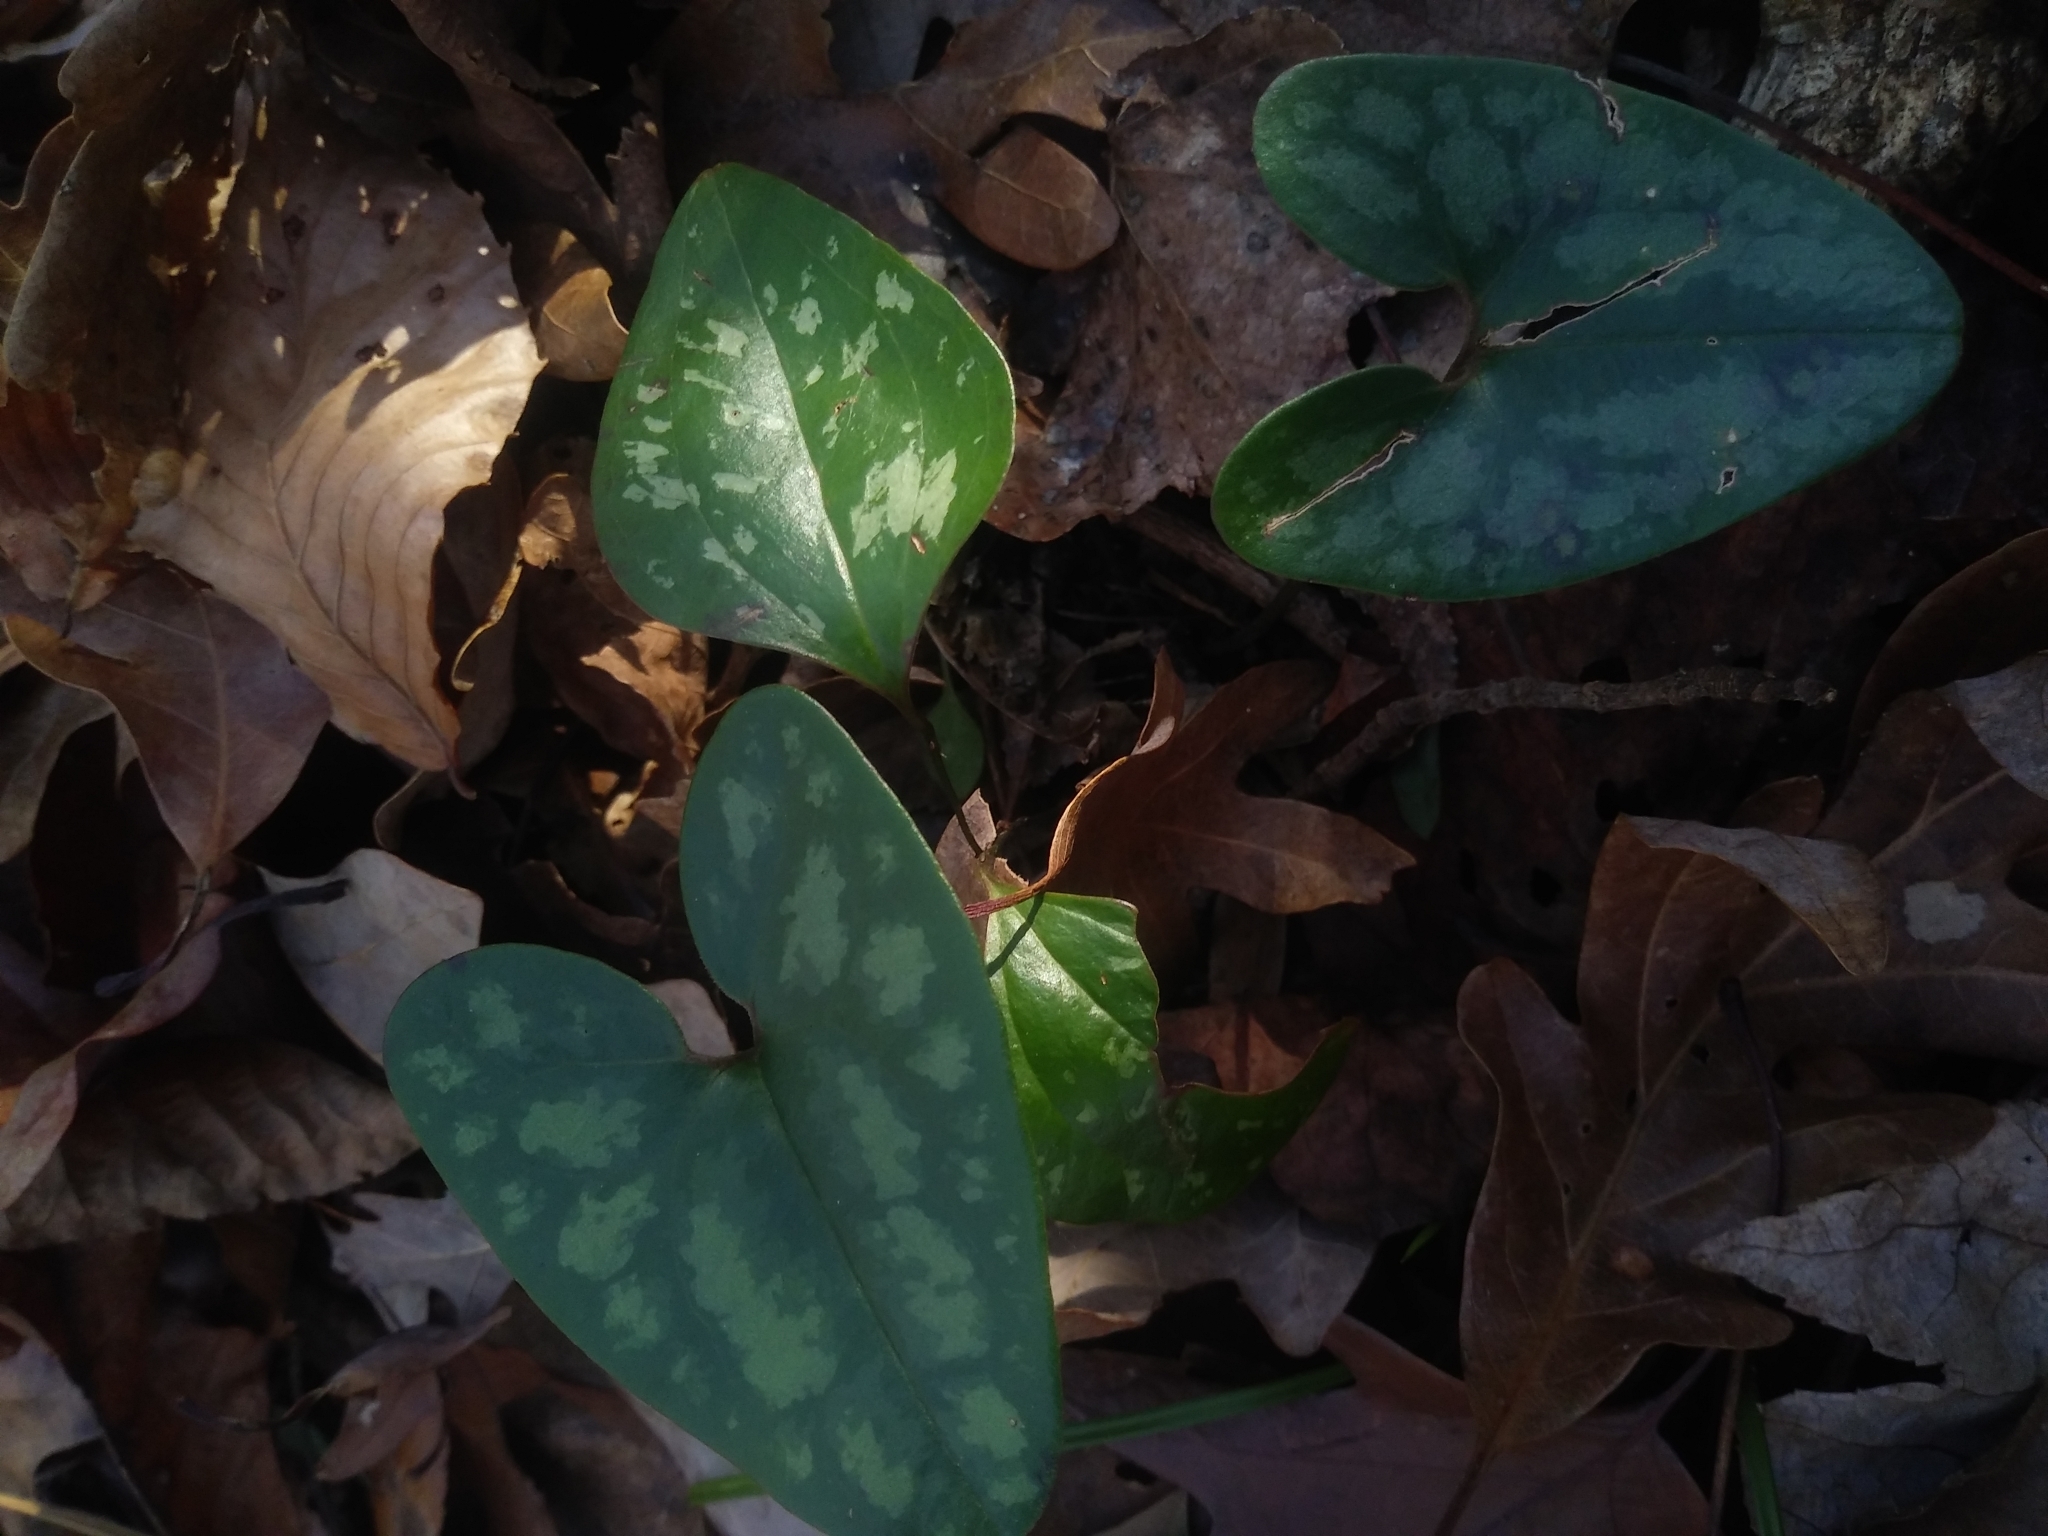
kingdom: Plantae
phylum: Tracheophyta
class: Magnoliopsida
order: Piperales
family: Aristolochiaceae
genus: Hexastylis
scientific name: Hexastylis arifolia
